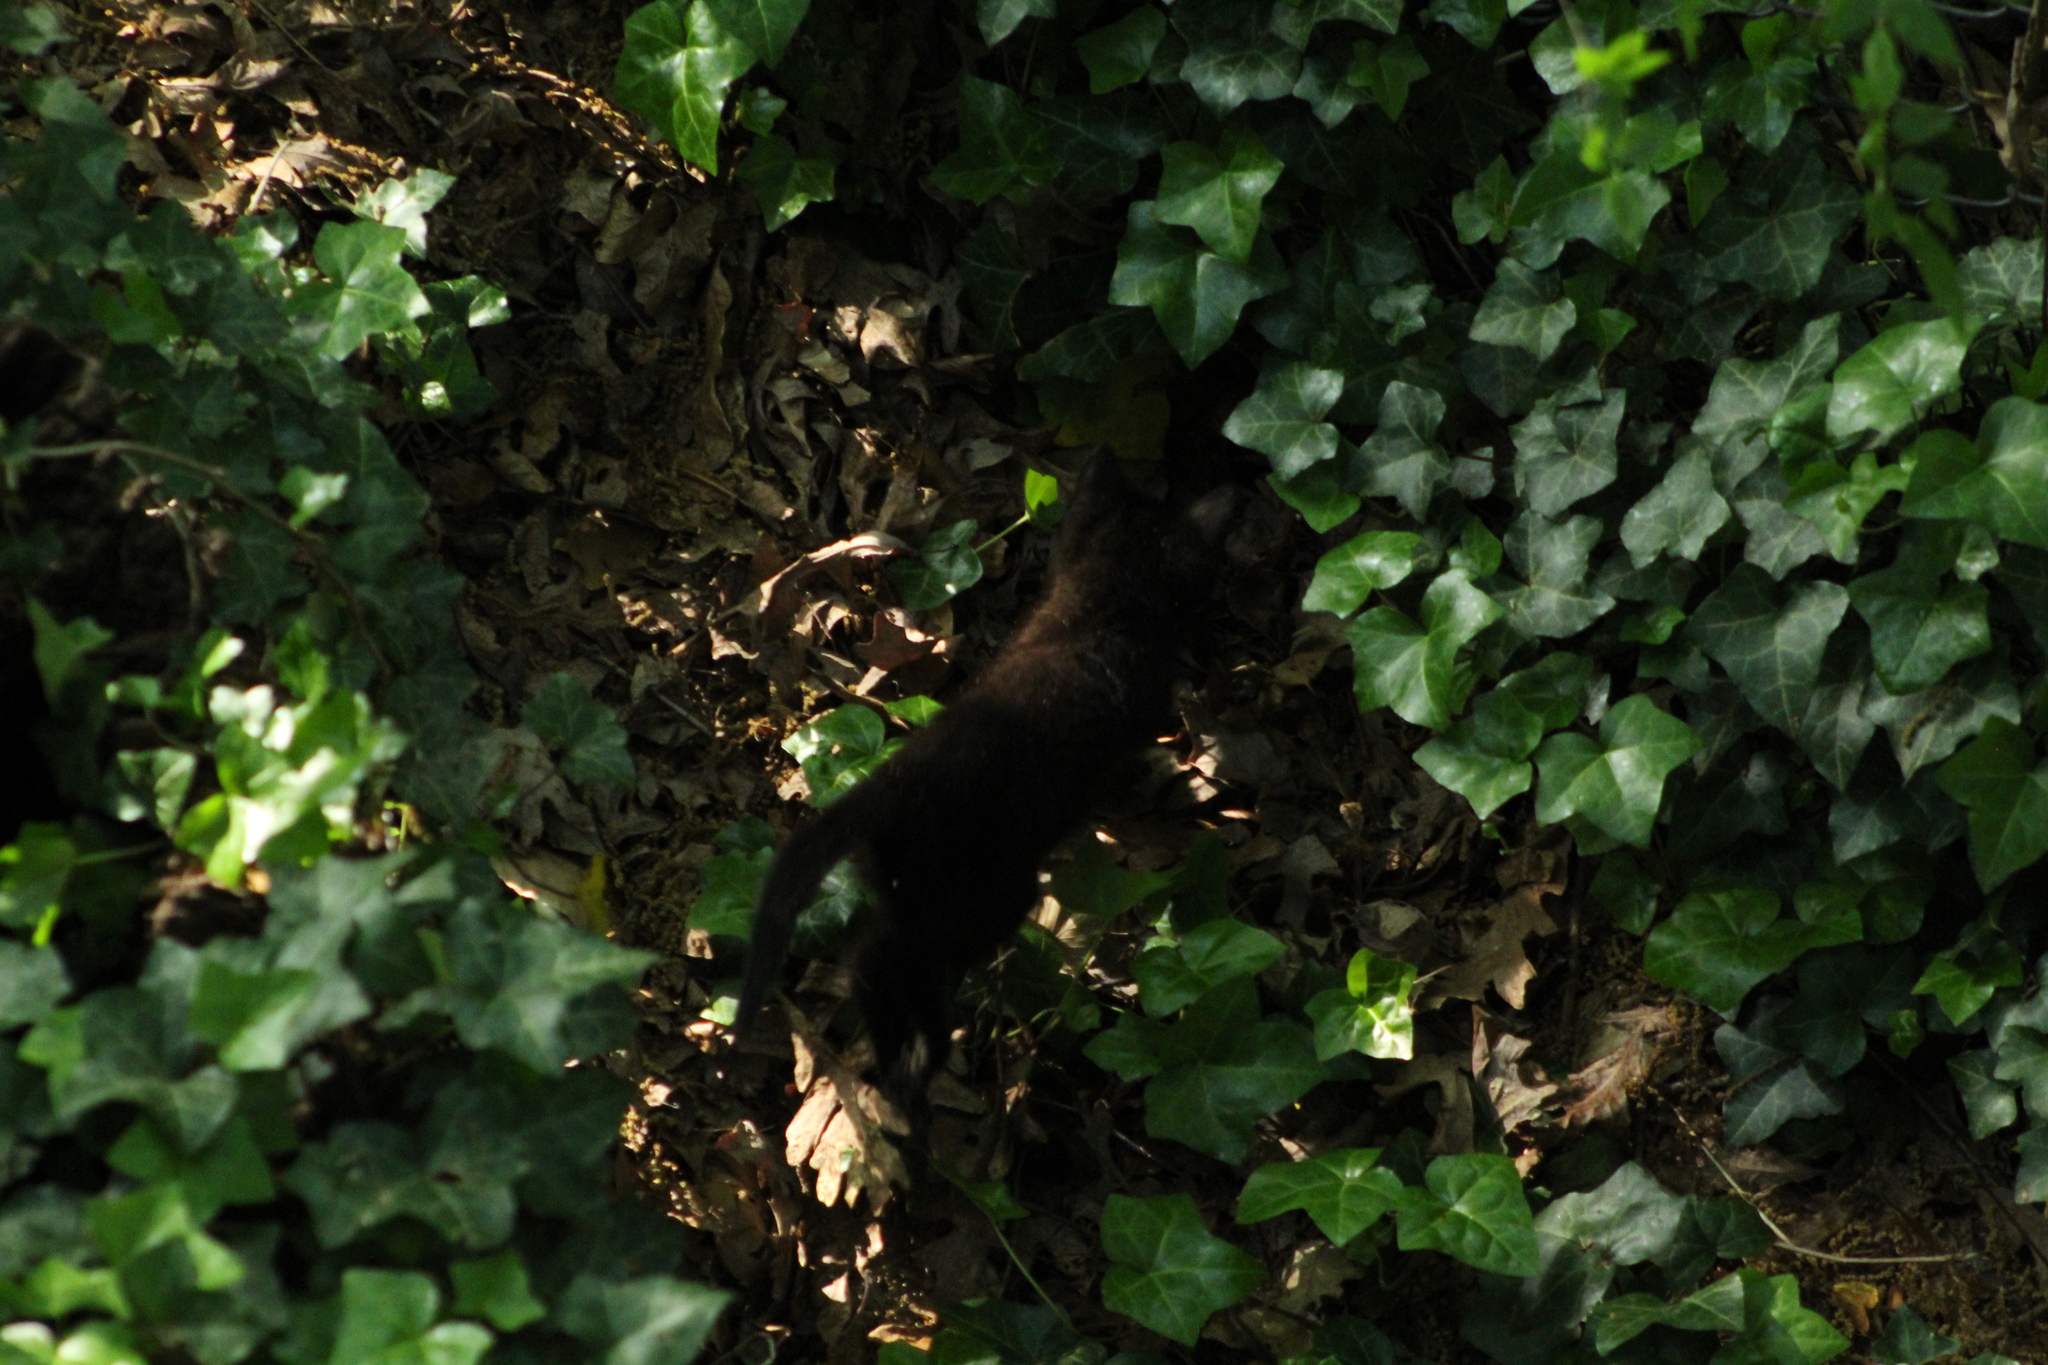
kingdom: Animalia
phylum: Chordata
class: Mammalia
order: Carnivora
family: Felidae
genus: Felis
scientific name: Felis catus
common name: Domestic cat
